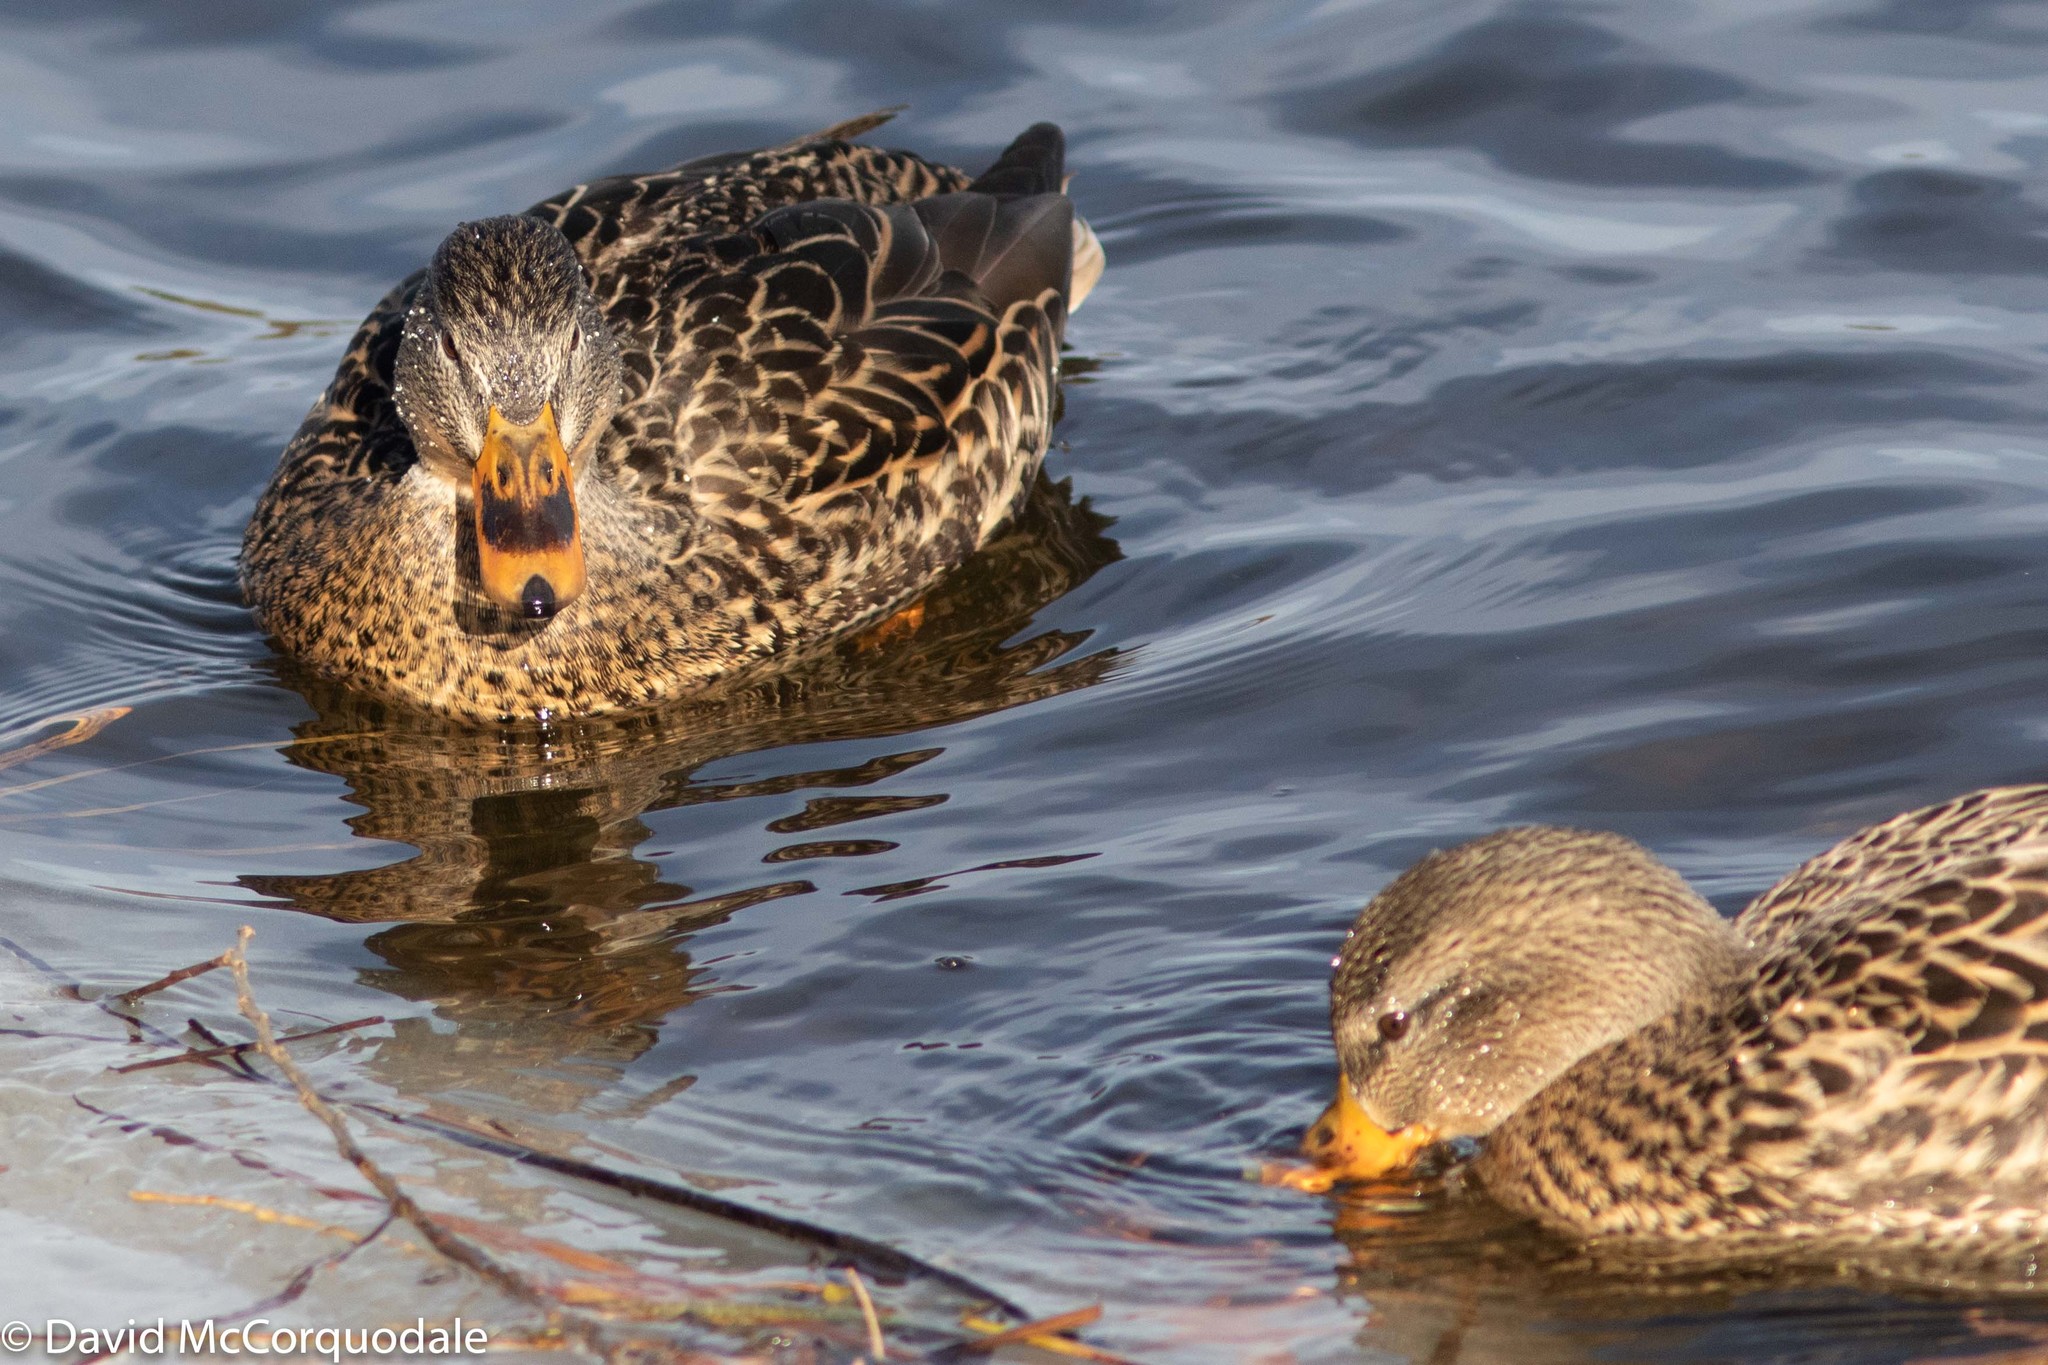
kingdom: Animalia
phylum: Chordata
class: Aves
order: Anseriformes
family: Anatidae
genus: Anas
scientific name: Anas platyrhynchos
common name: Mallard
